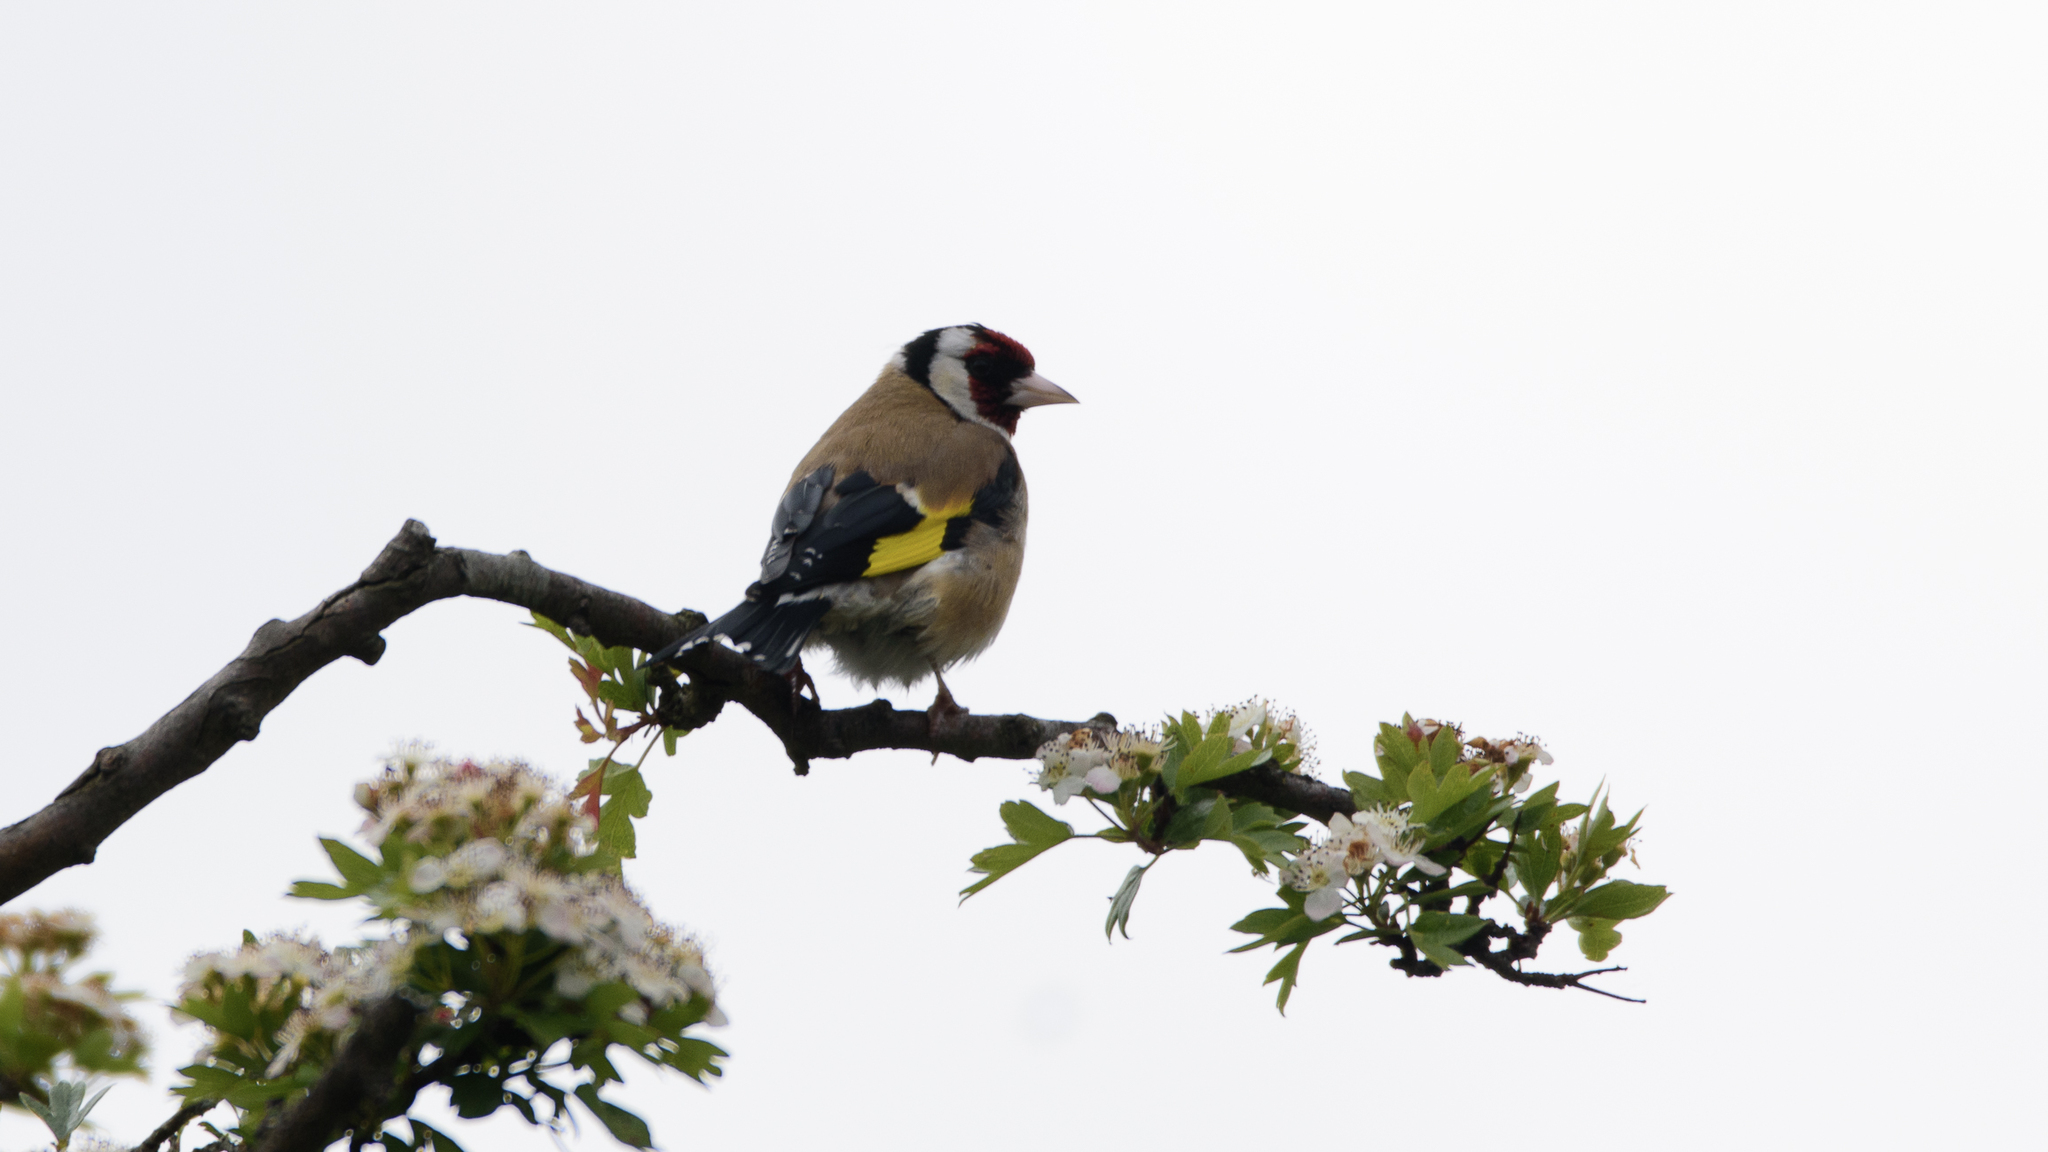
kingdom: Animalia
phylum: Chordata
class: Aves
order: Passeriformes
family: Fringillidae
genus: Carduelis
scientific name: Carduelis carduelis
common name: European goldfinch
